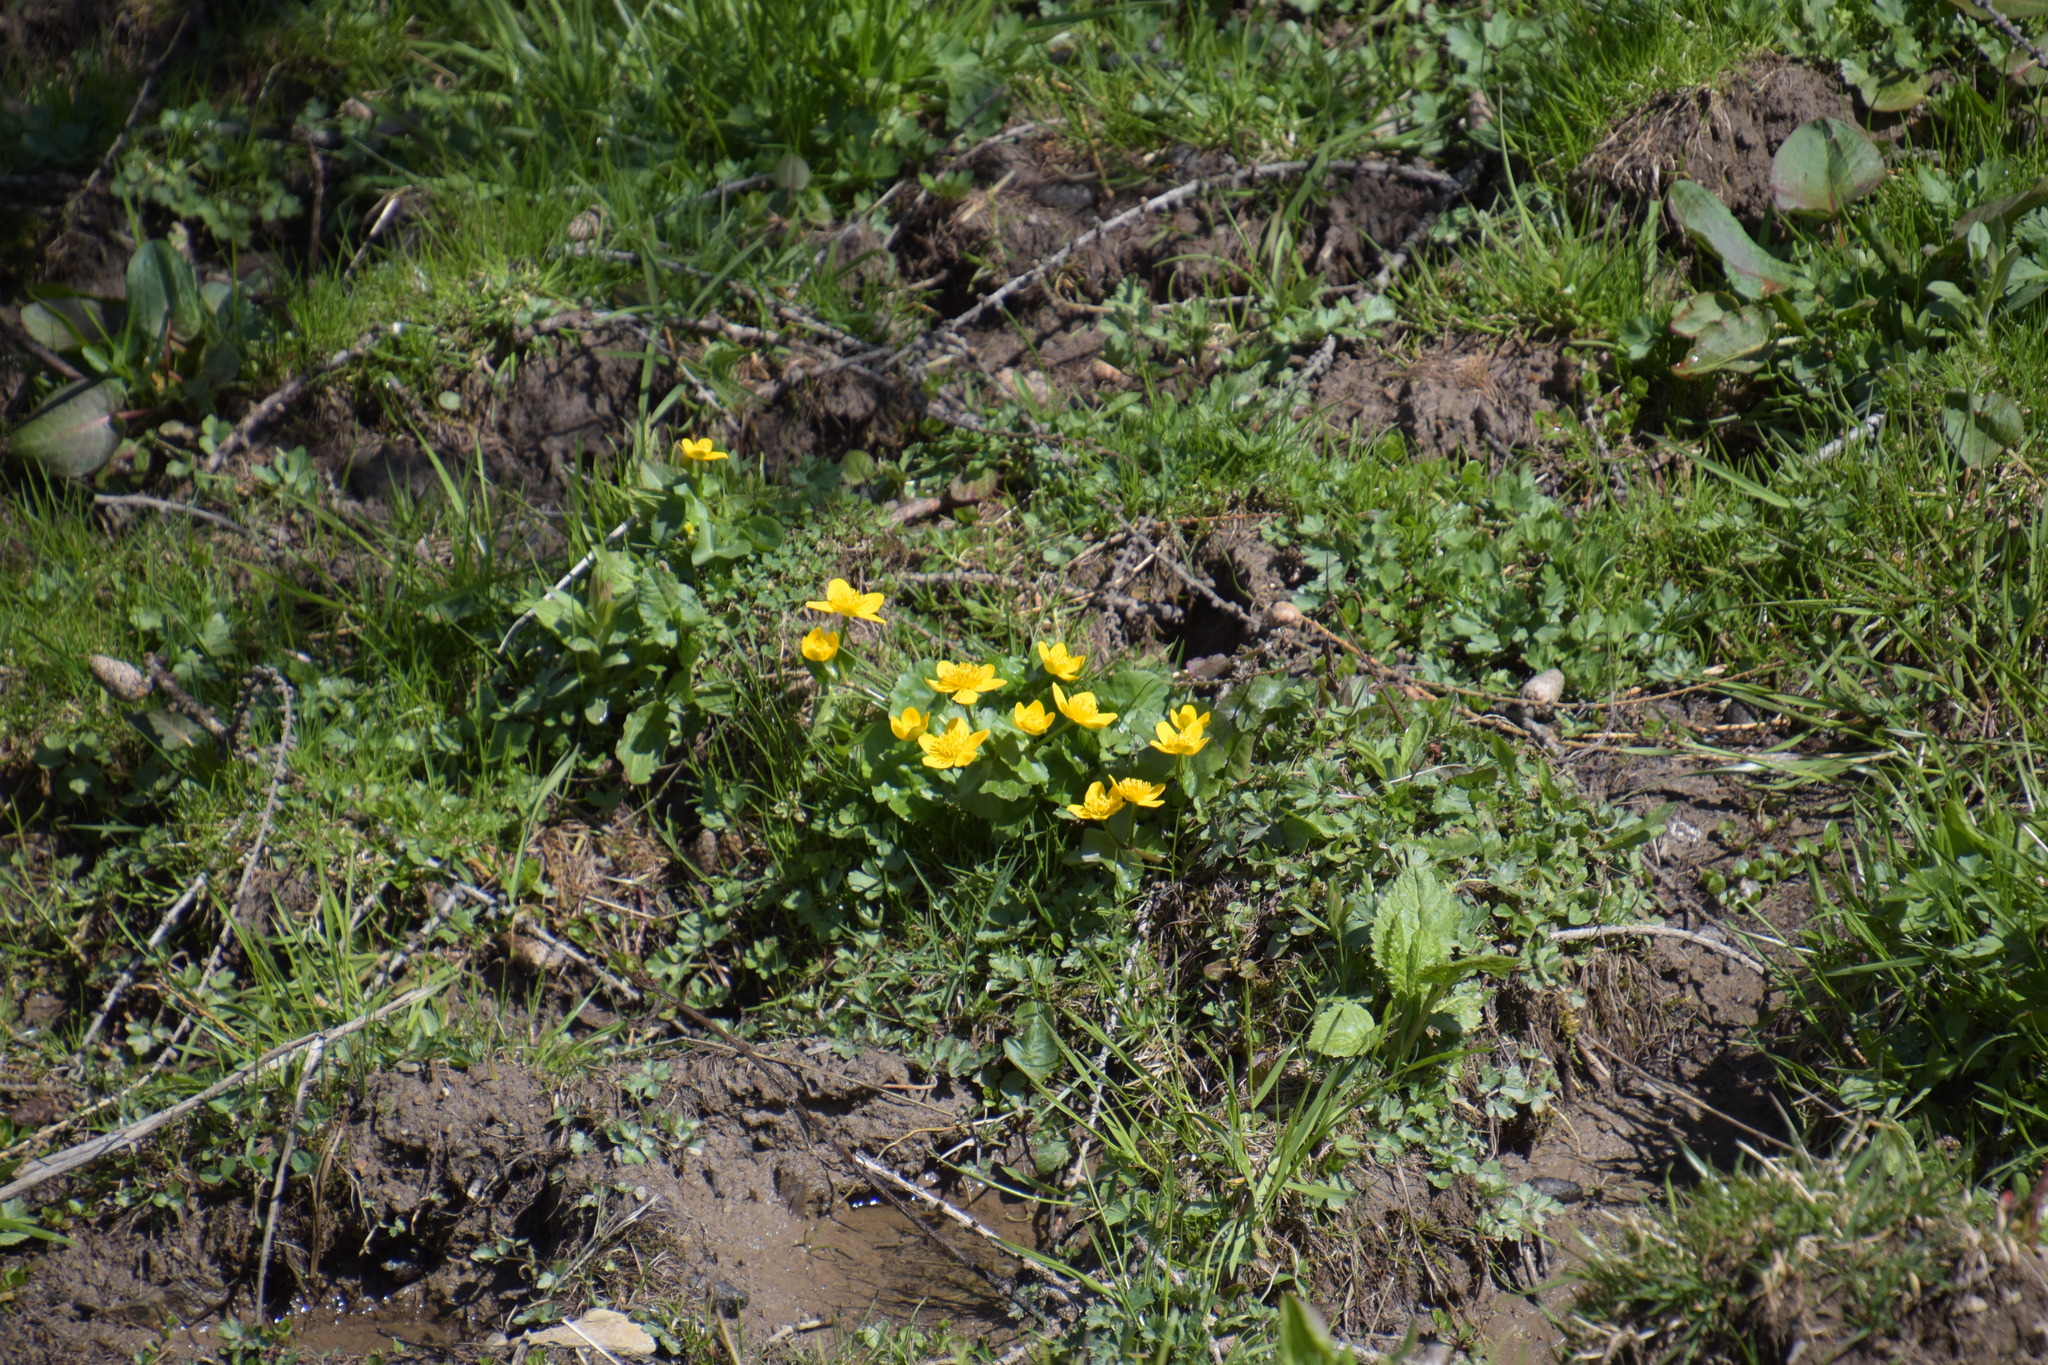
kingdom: Plantae
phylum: Tracheophyta
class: Magnoliopsida
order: Ranunculales
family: Ranunculaceae
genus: Caltha
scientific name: Caltha palustris
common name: Marsh marigold
